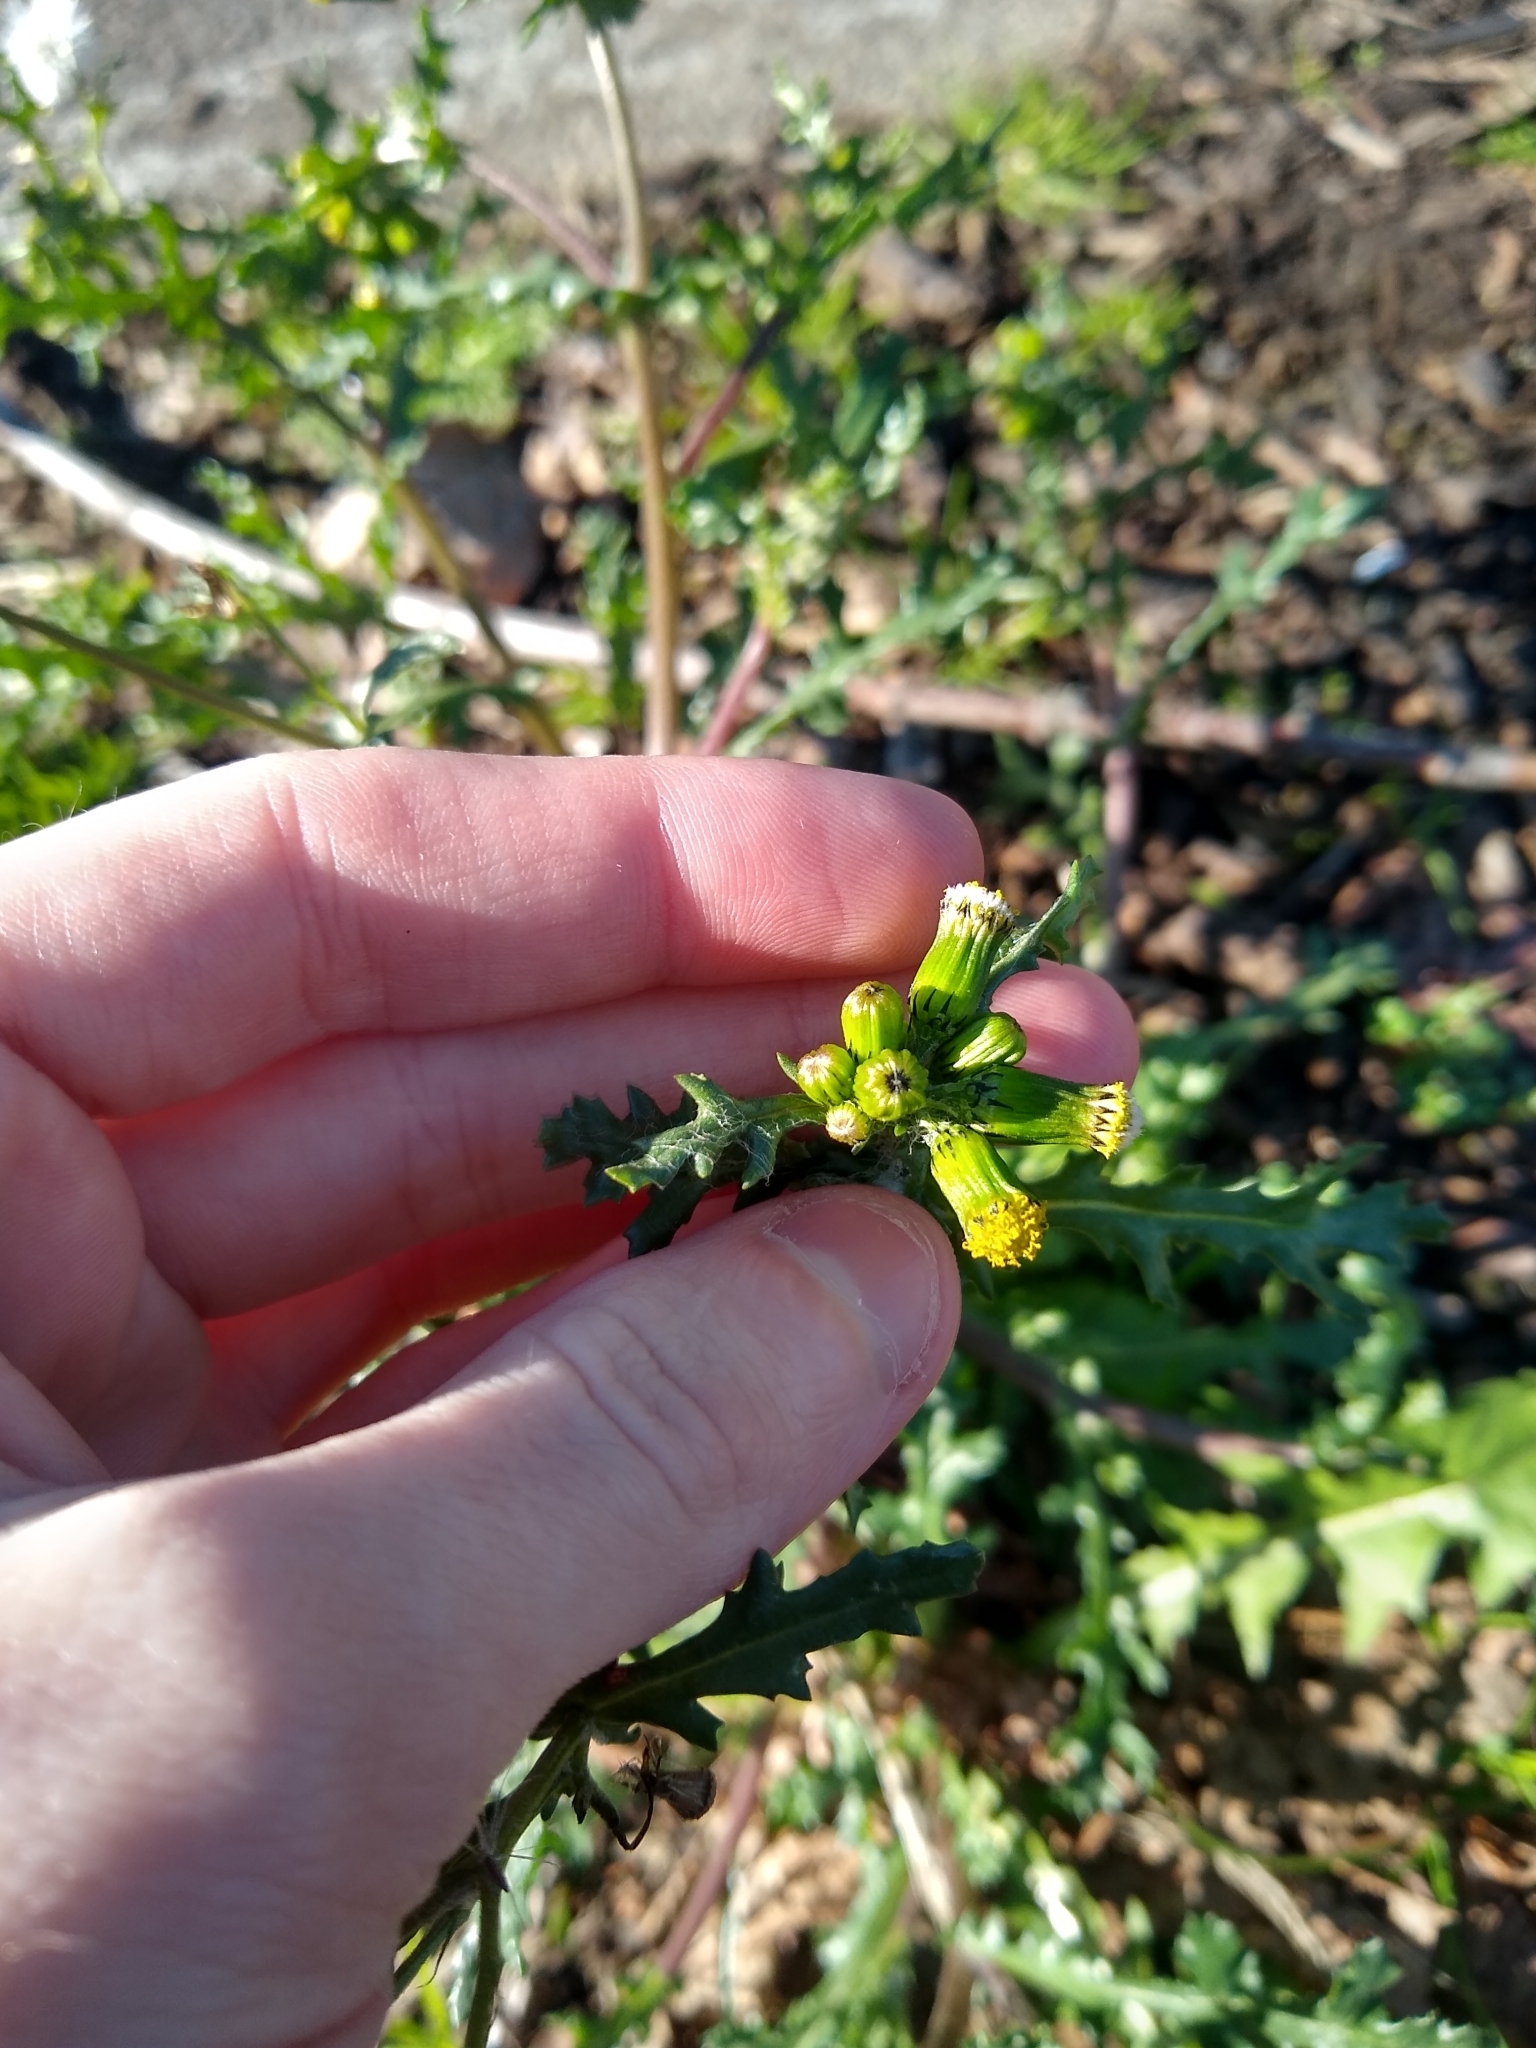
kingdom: Plantae
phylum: Tracheophyta
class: Magnoliopsida
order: Asterales
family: Asteraceae
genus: Senecio
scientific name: Senecio vulgaris
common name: Old-man-in-the-spring
